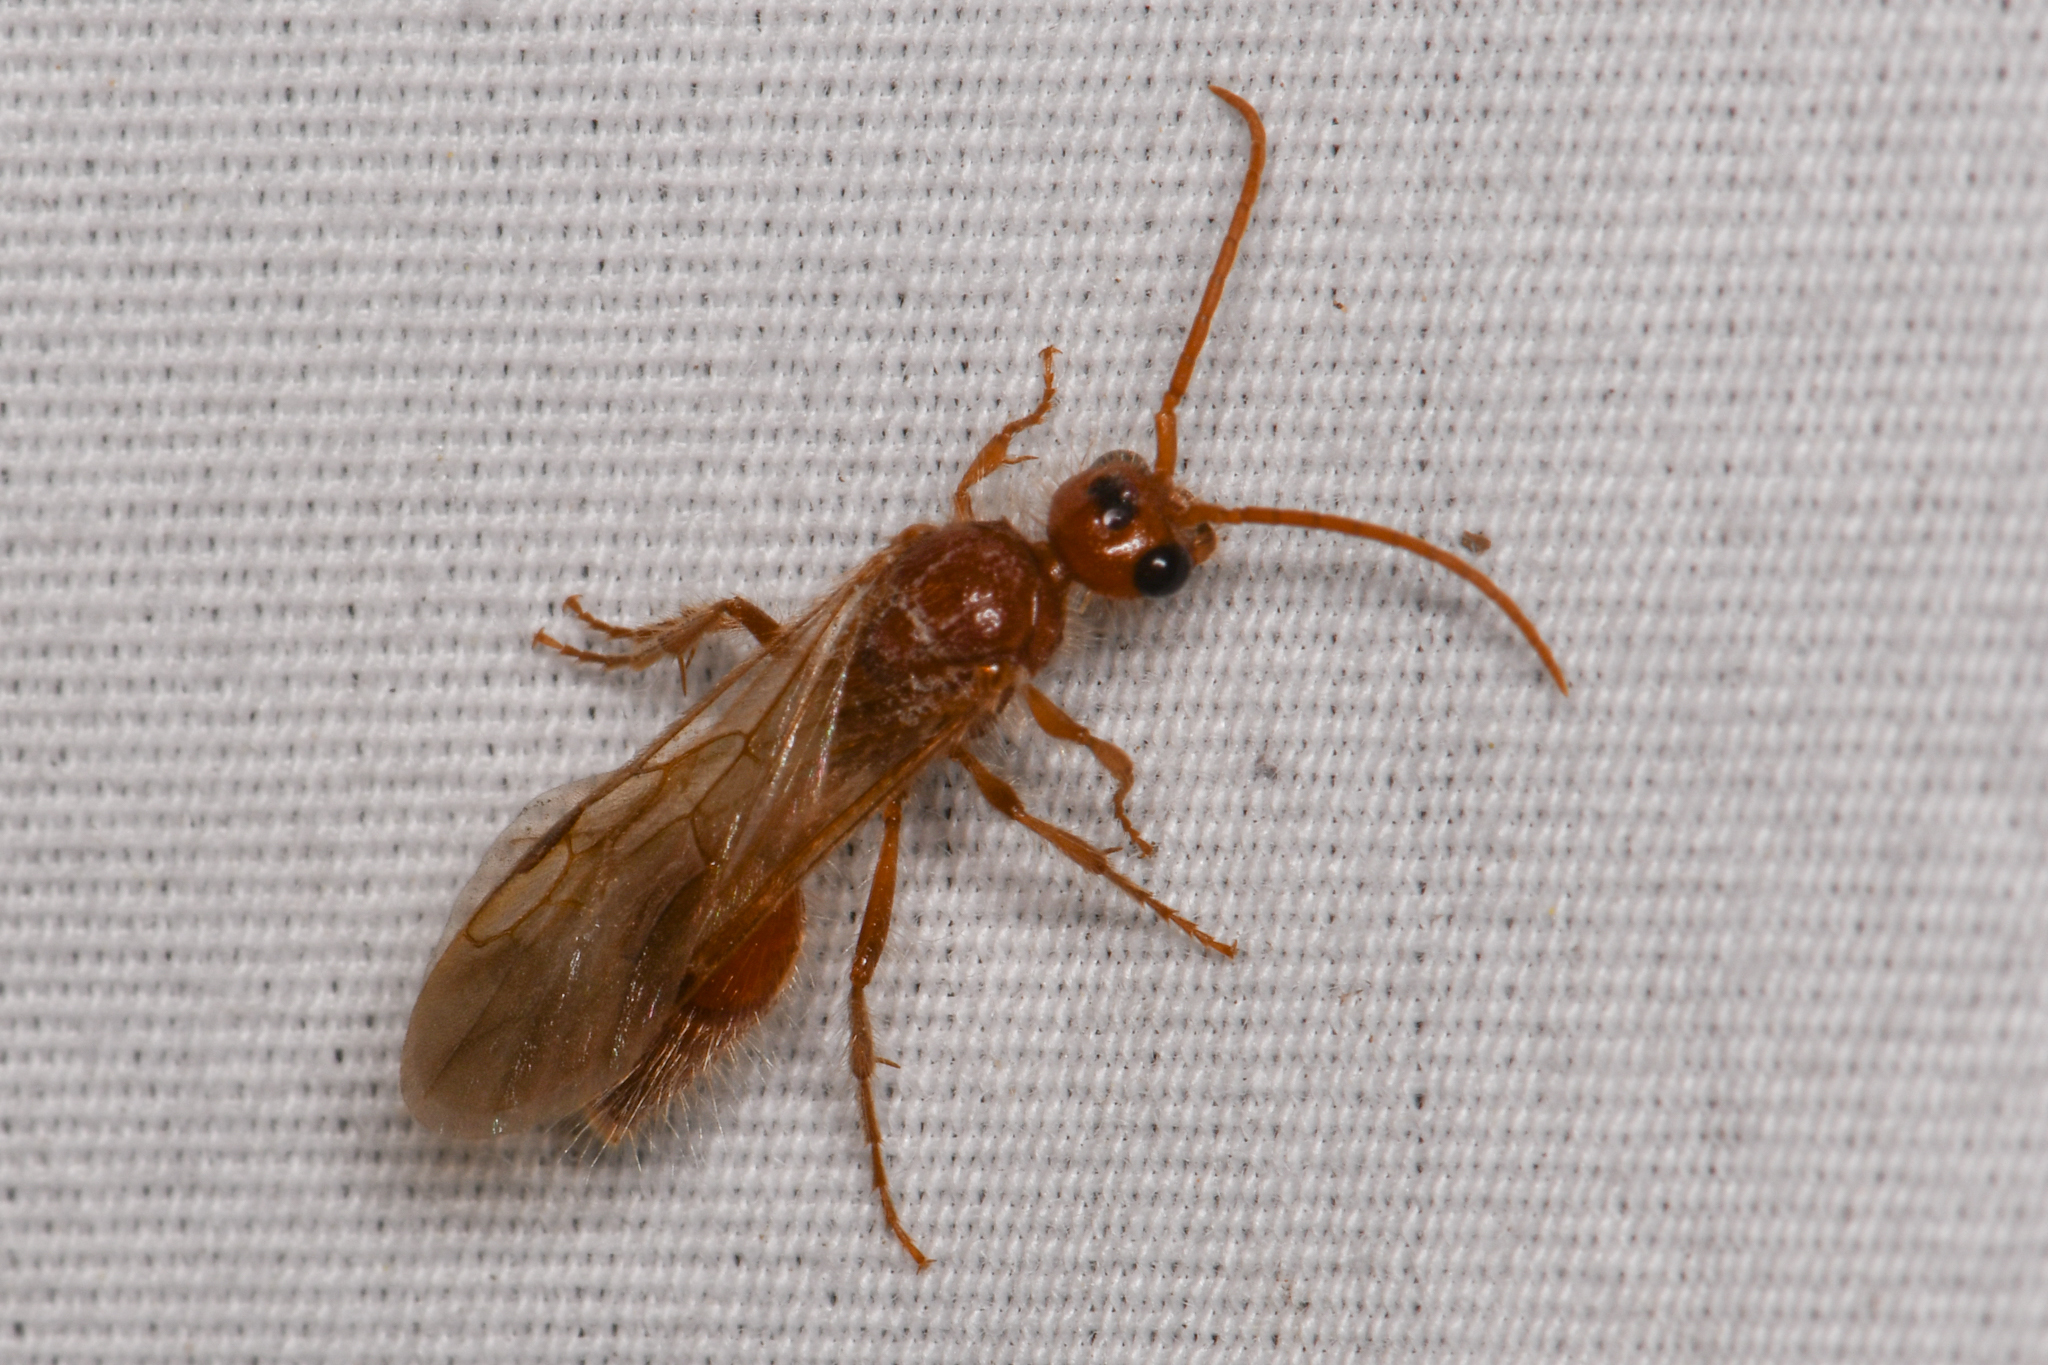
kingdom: Animalia
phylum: Arthropoda
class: Insecta
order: Hymenoptera
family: Mutillidae
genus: Odontophotopsis
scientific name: Odontophotopsis exogyra
